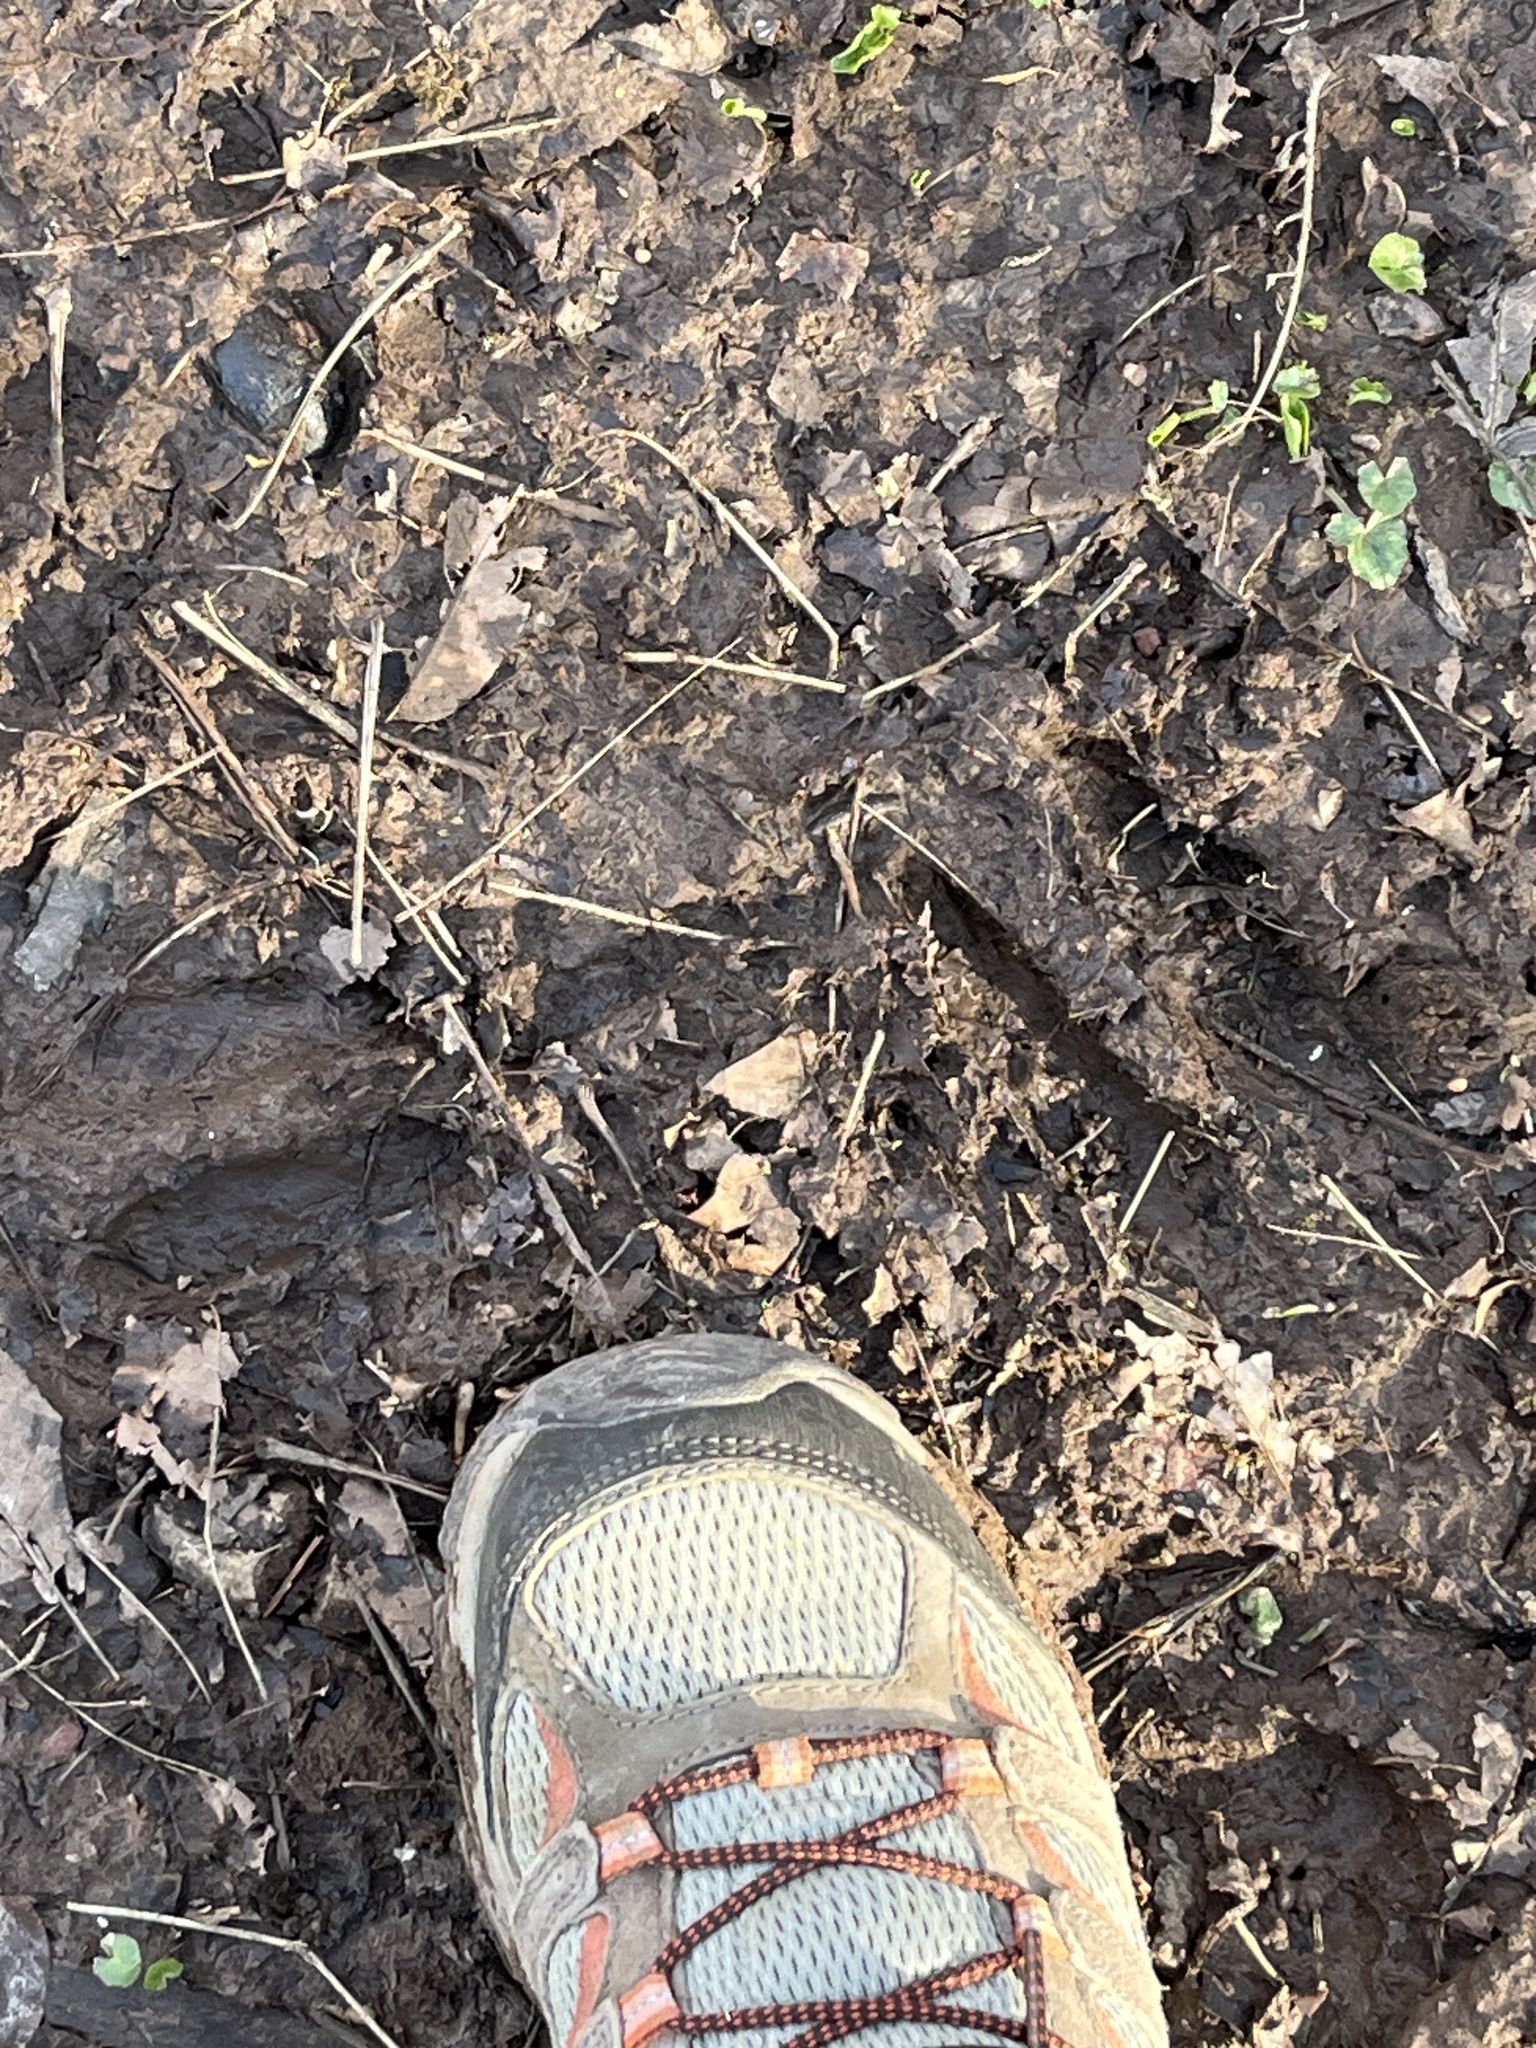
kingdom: Animalia
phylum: Chordata
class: Mammalia
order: Artiodactyla
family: Cervidae
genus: Odocoileus
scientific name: Odocoileus virginianus
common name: White-tailed deer
